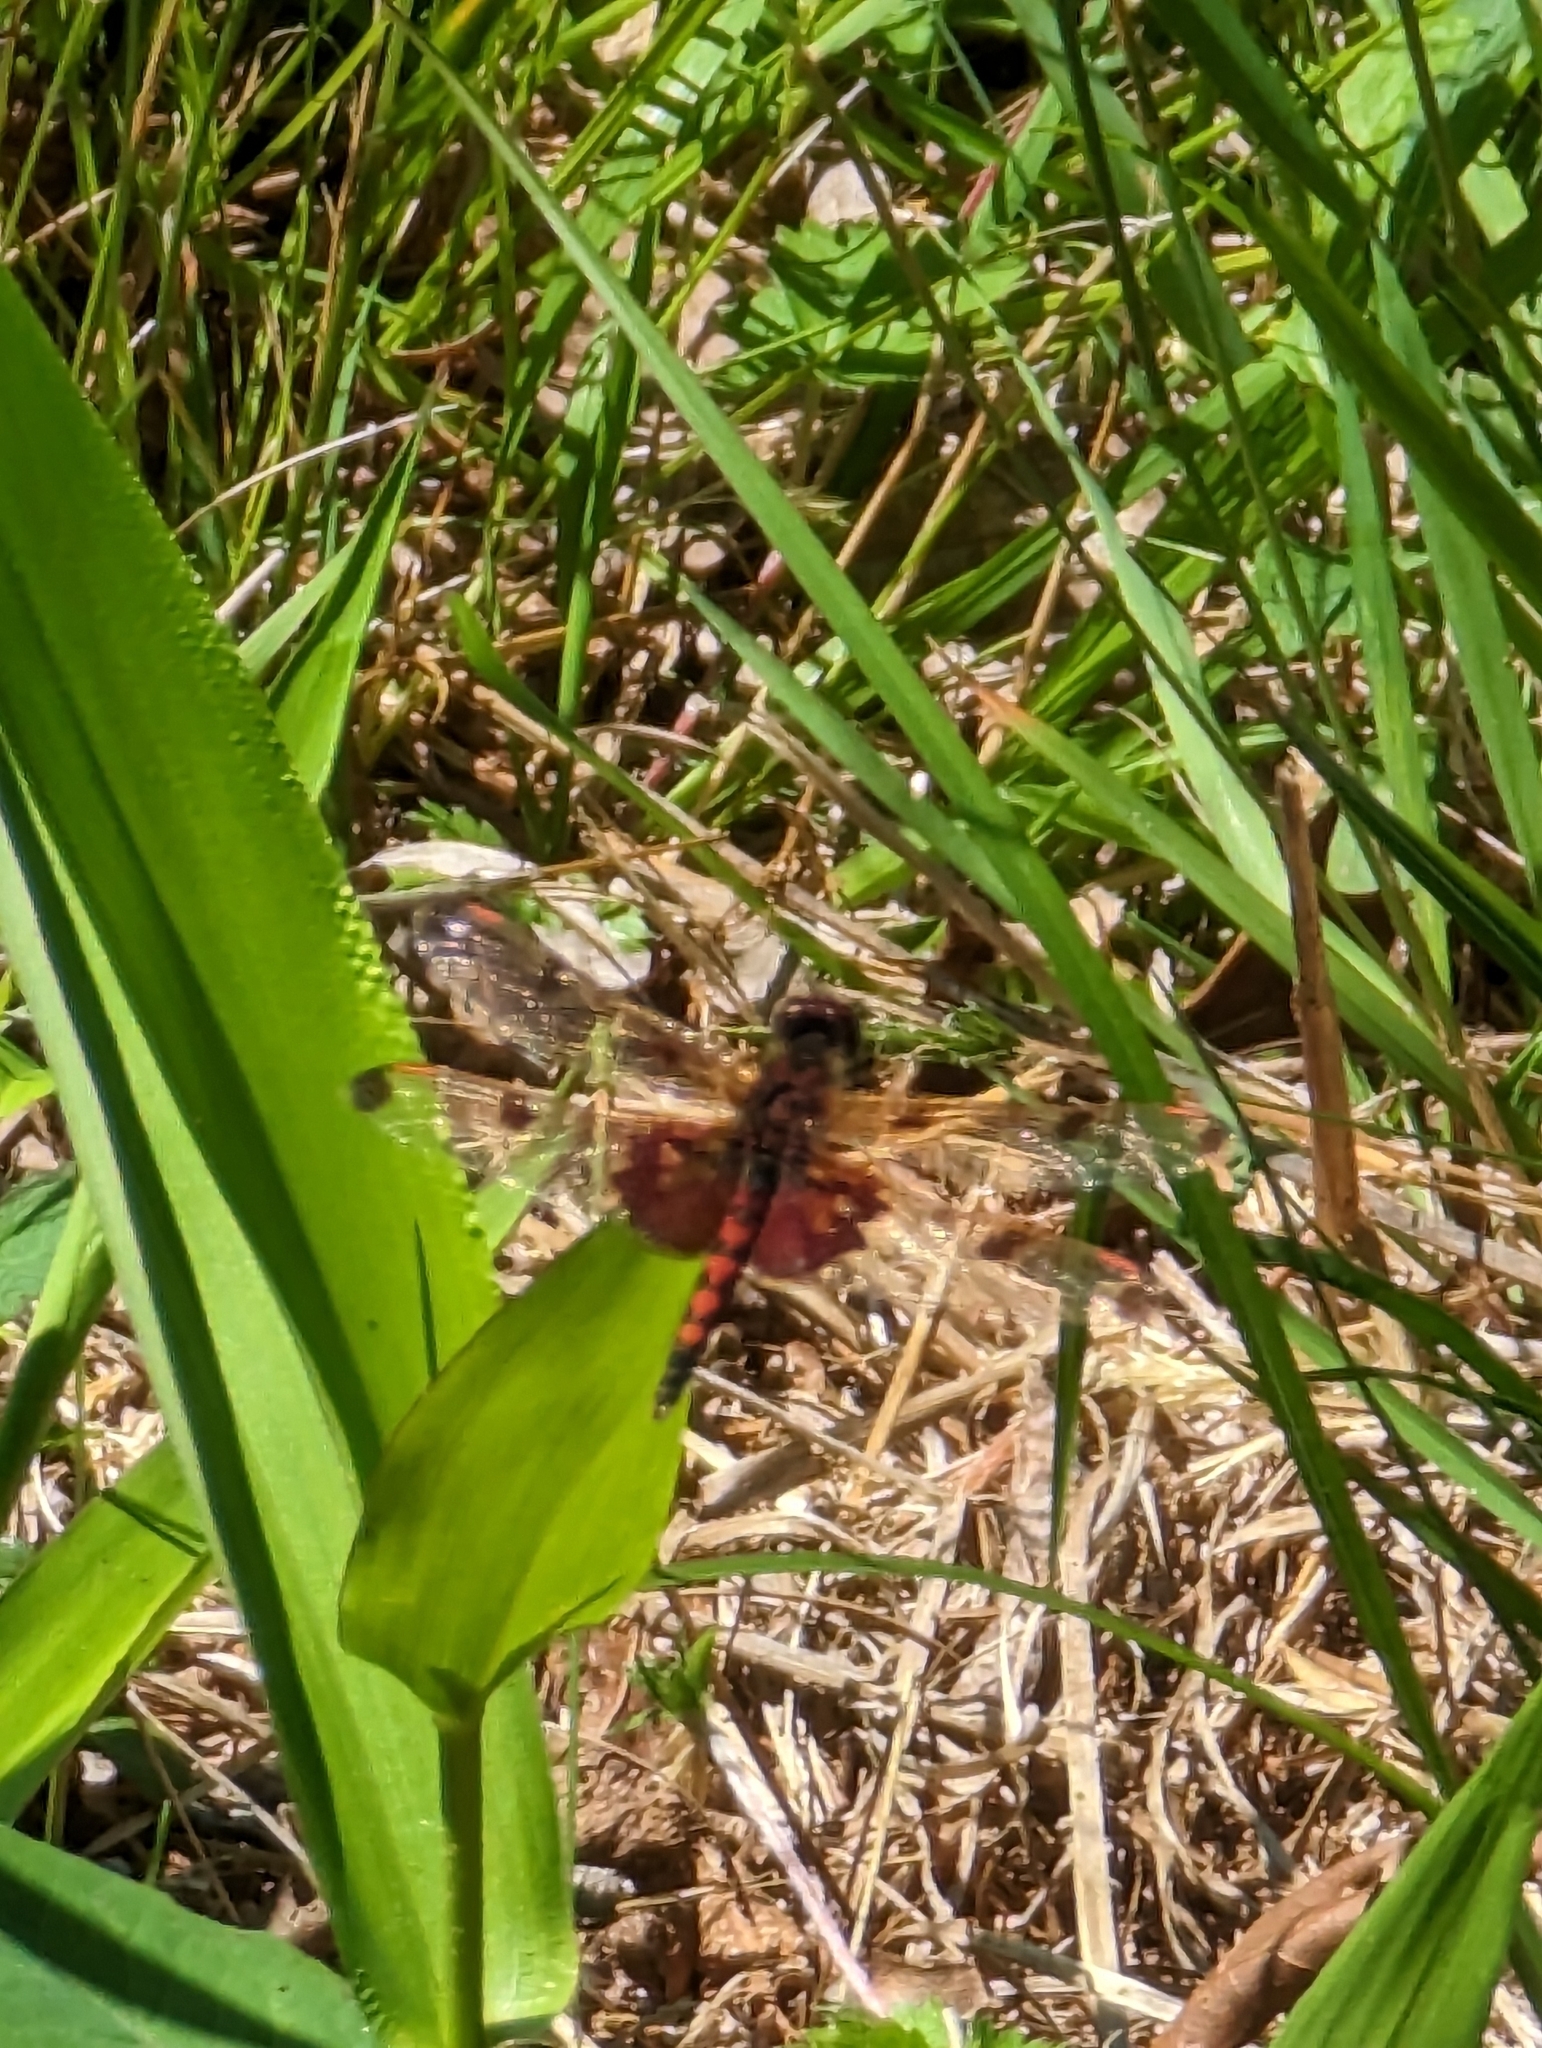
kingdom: Animalia
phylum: Arthropoda
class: Insecta
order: Odonata
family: Libellulidae
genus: Celithemis
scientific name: Celithemis elisa
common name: Calico pennant
